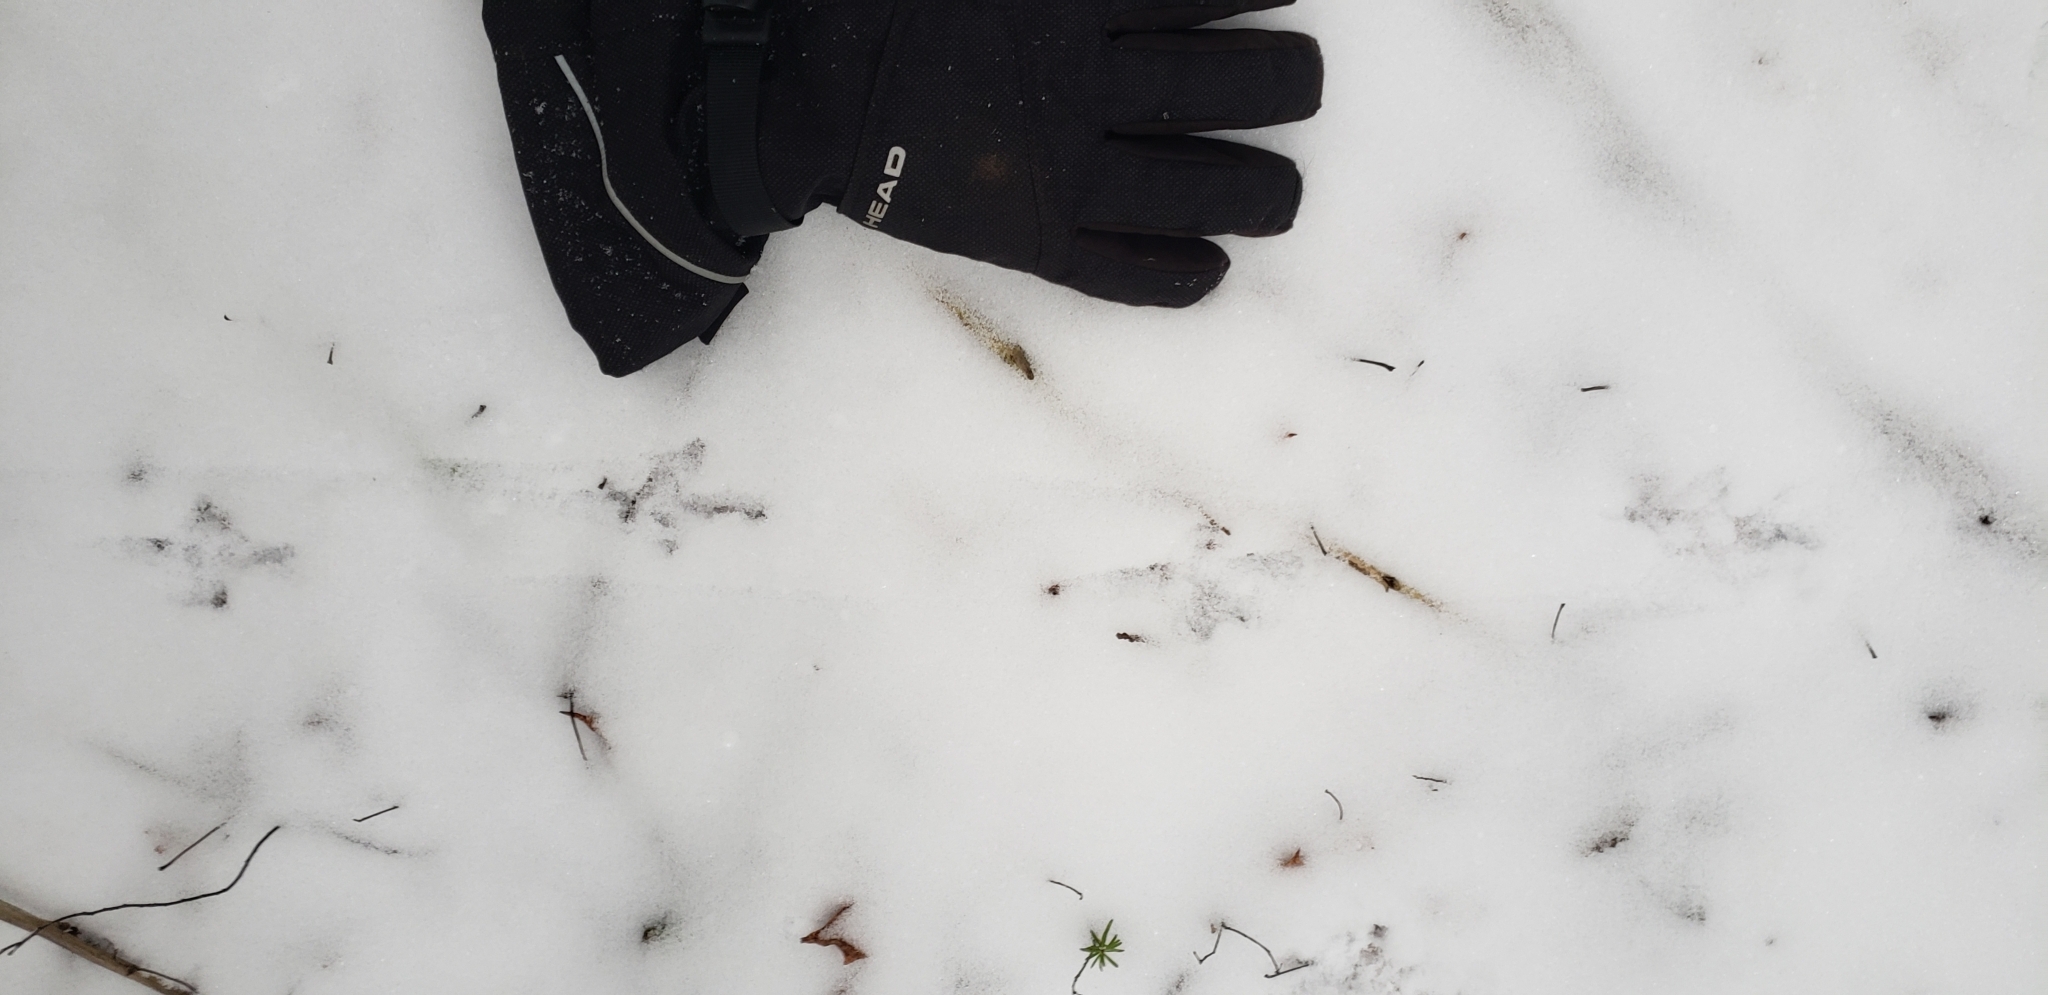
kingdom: Animalia
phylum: Chordata
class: Aves
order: Galliformes
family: Phasianidae
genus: Bonasa
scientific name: Bonasa umbellus
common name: Ruffed grouse
